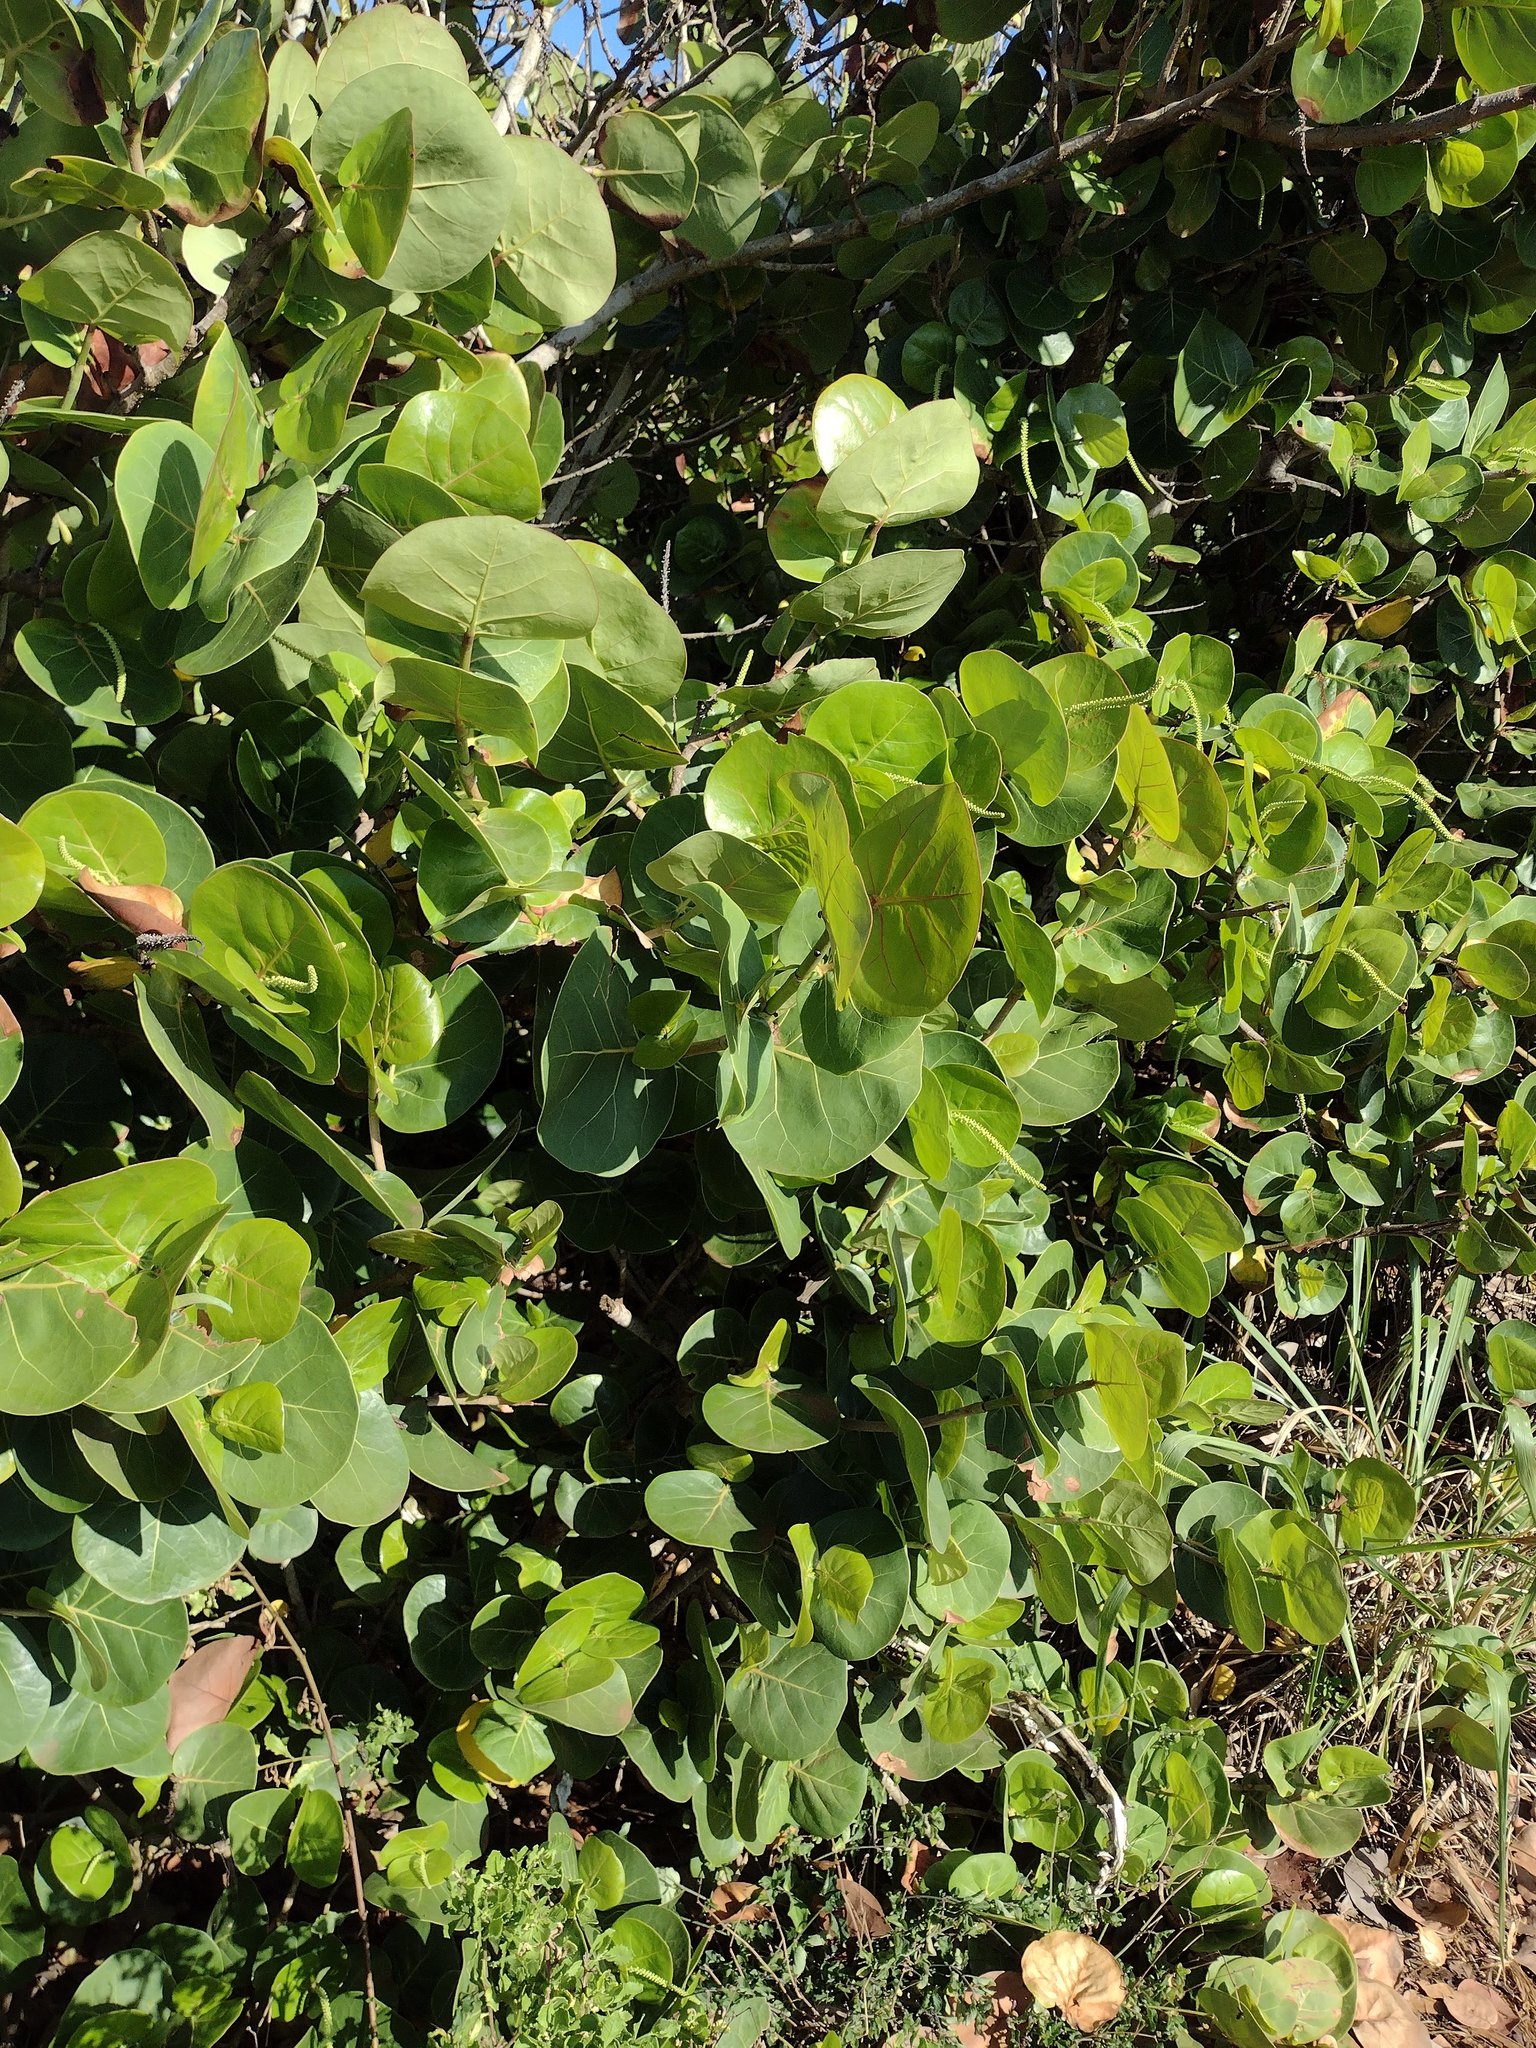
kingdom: Plantae
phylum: Tracheophyta
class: Magnoliopsida
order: Caryophyllales
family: Polygonaceae
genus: Coccoloba
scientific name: Coccoloba uvifera
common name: Seagrape
